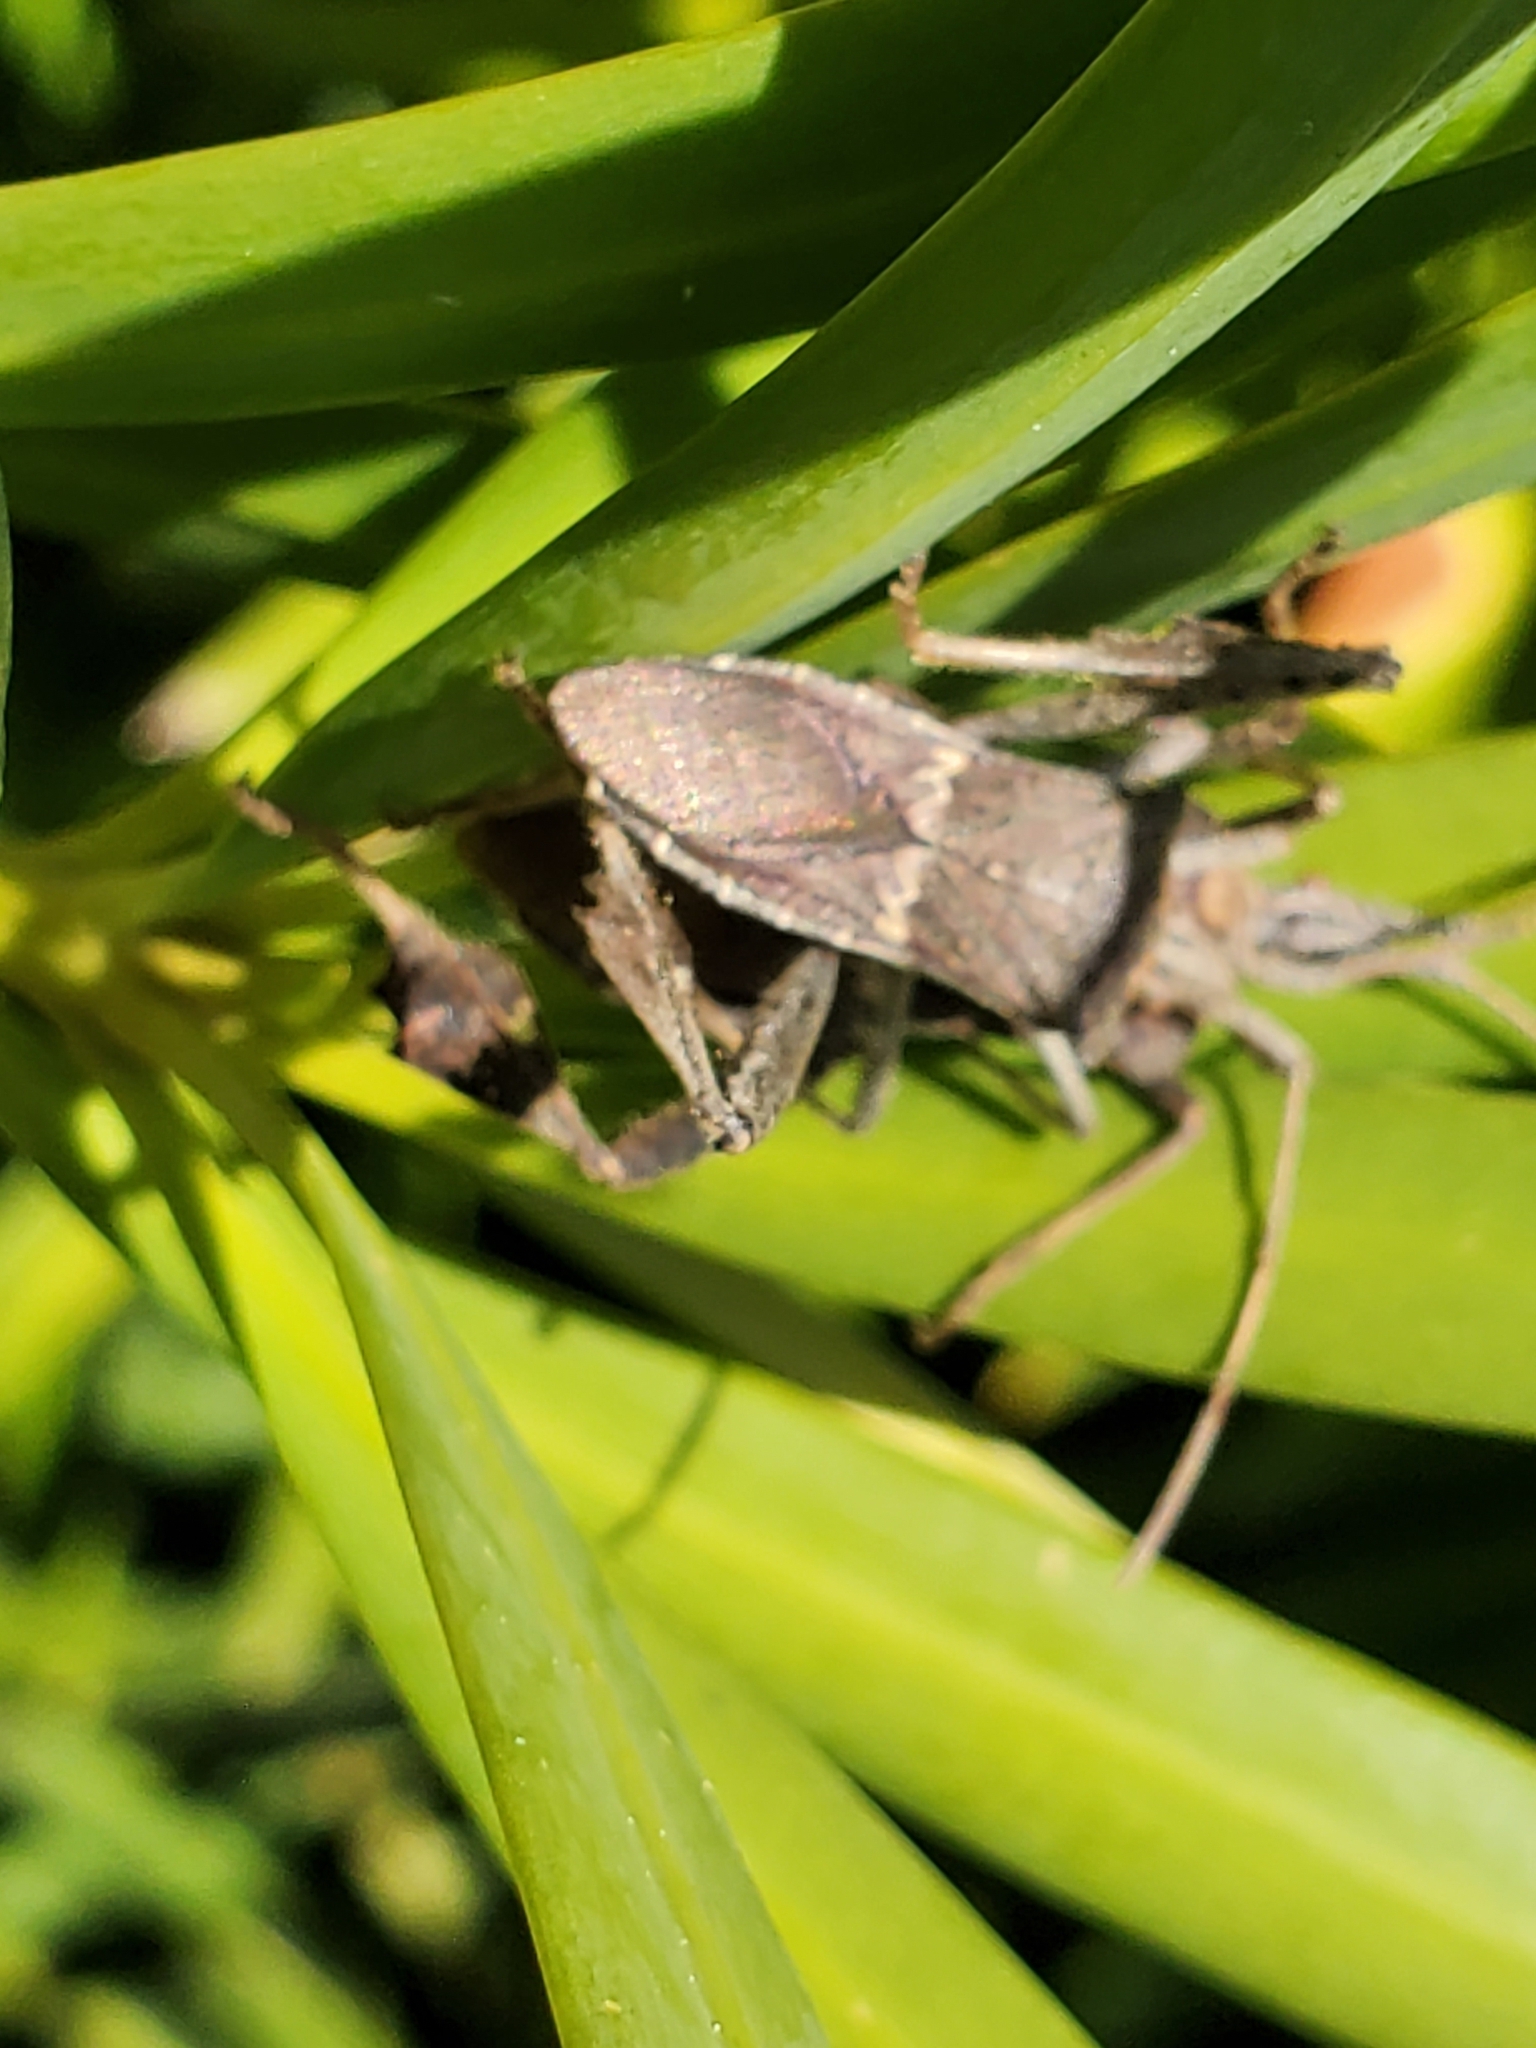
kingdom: Animalia
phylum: Arthropoda
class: Insecta
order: Hemiptera
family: Coreidae
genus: Leptoglossus
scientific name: Leptoglossus zonatus
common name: Large-legged bug
